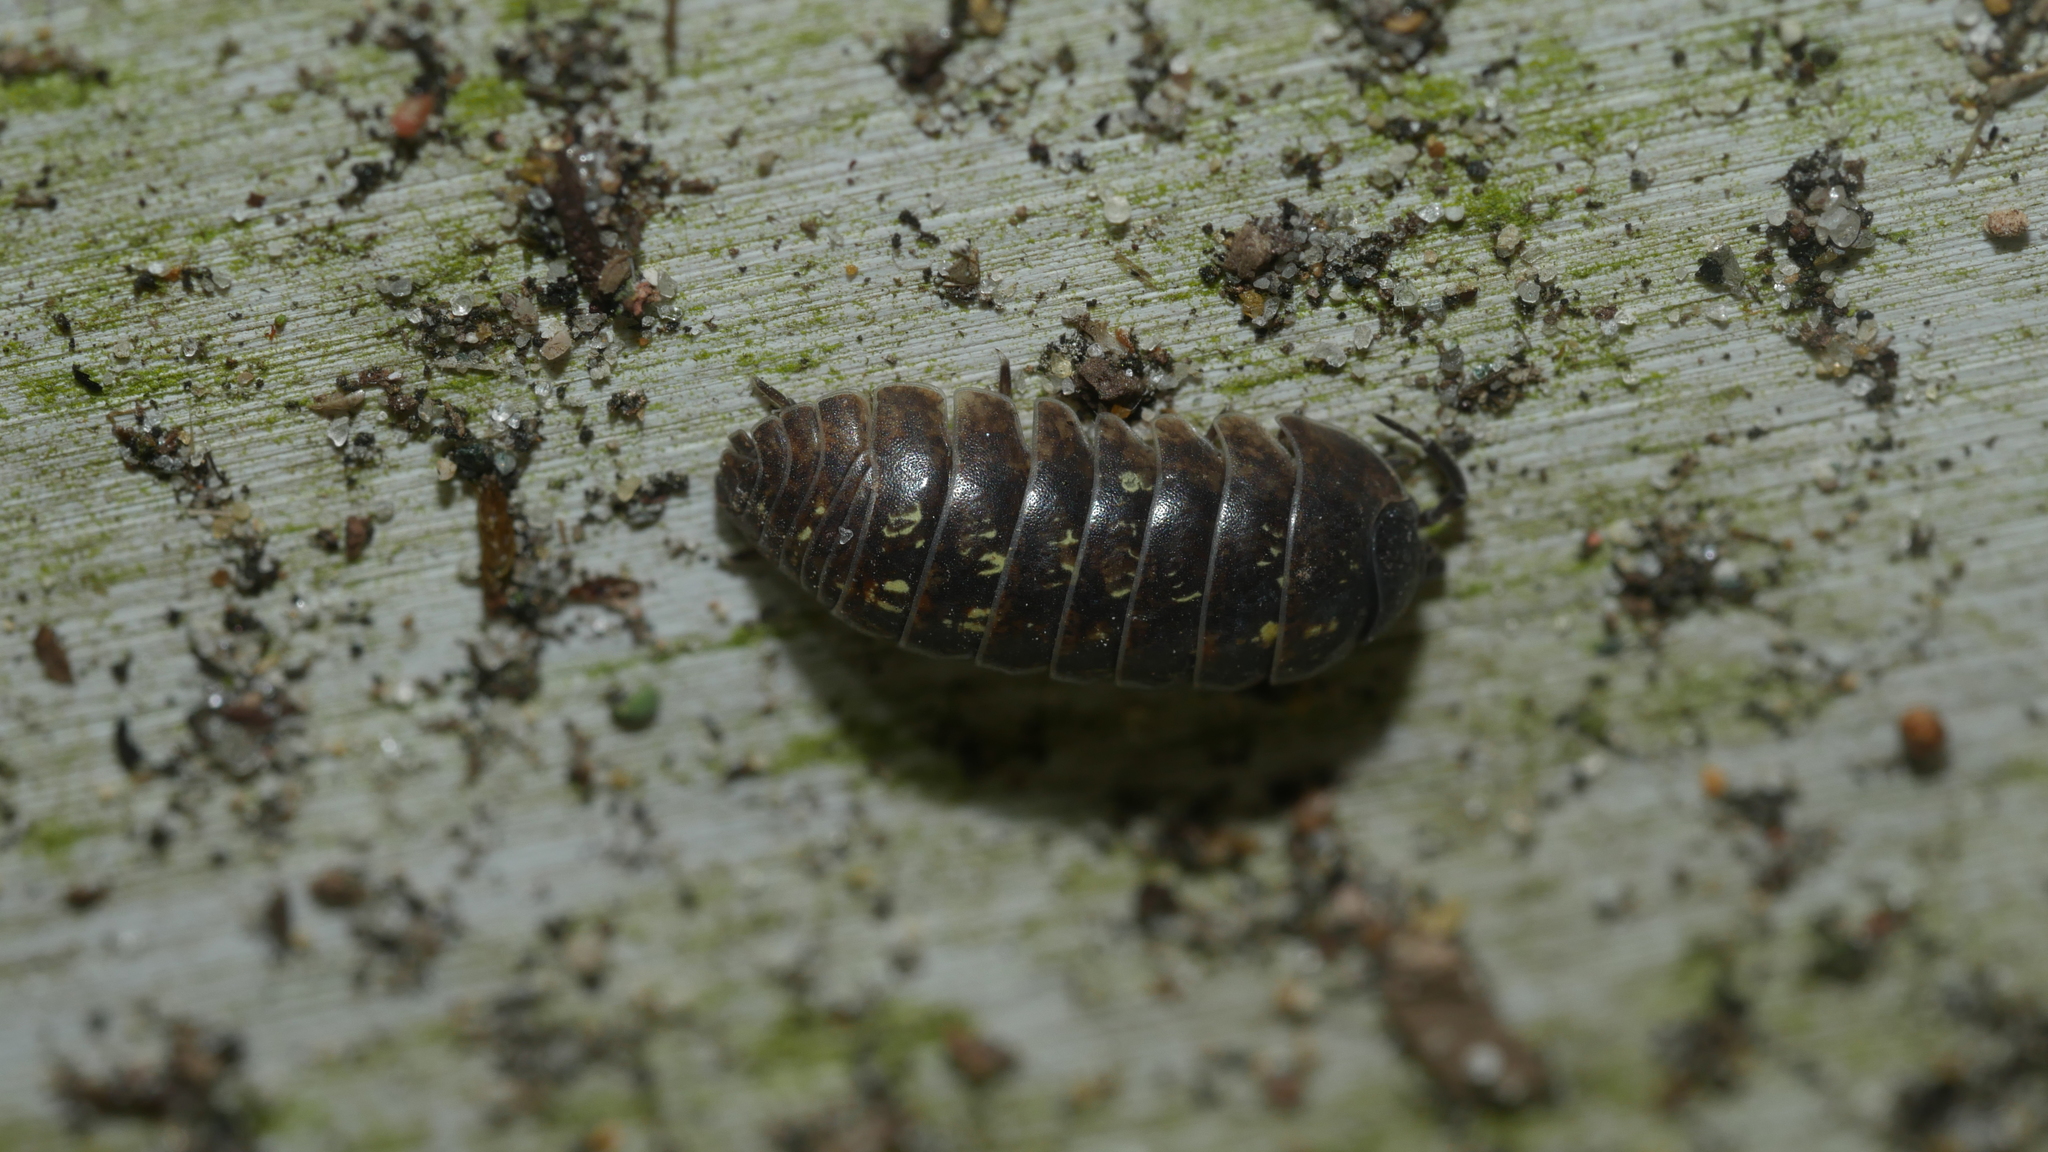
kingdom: Animalia
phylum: Arthropoda
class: Malacostraca
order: Isopoda
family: Armadillidiidae
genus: Armadillidium
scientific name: Armadillidium vulgare
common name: Common pill woodlouse
